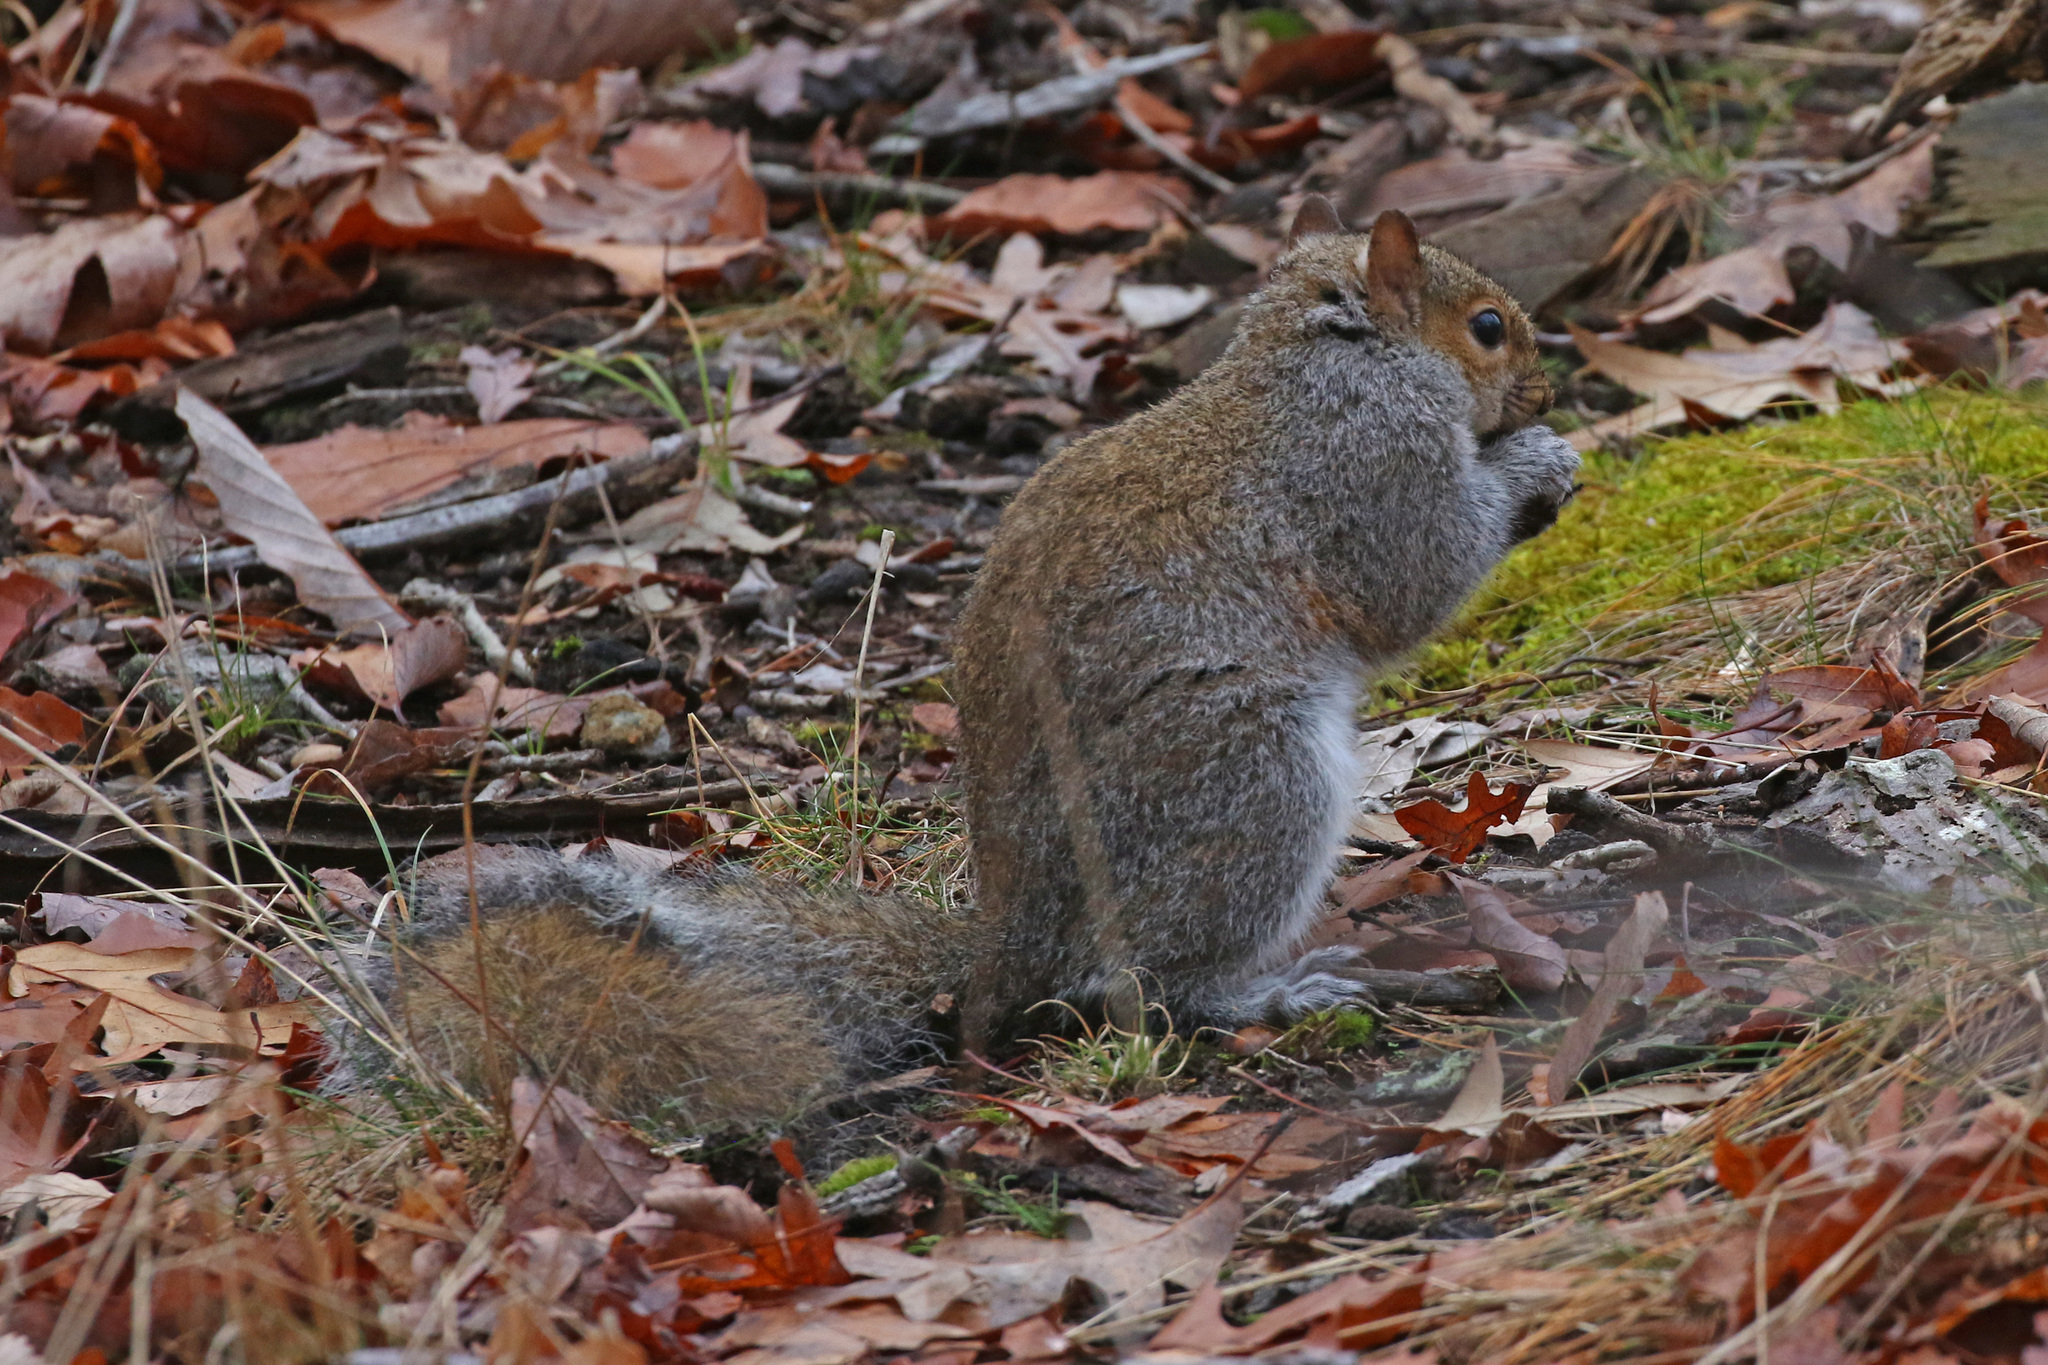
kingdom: Animalia
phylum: Chordata
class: Mammalia
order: Rodentia
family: Sciuridae
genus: Sciurus
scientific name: Sciurus carolinensis
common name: Eastern gray squirrel
